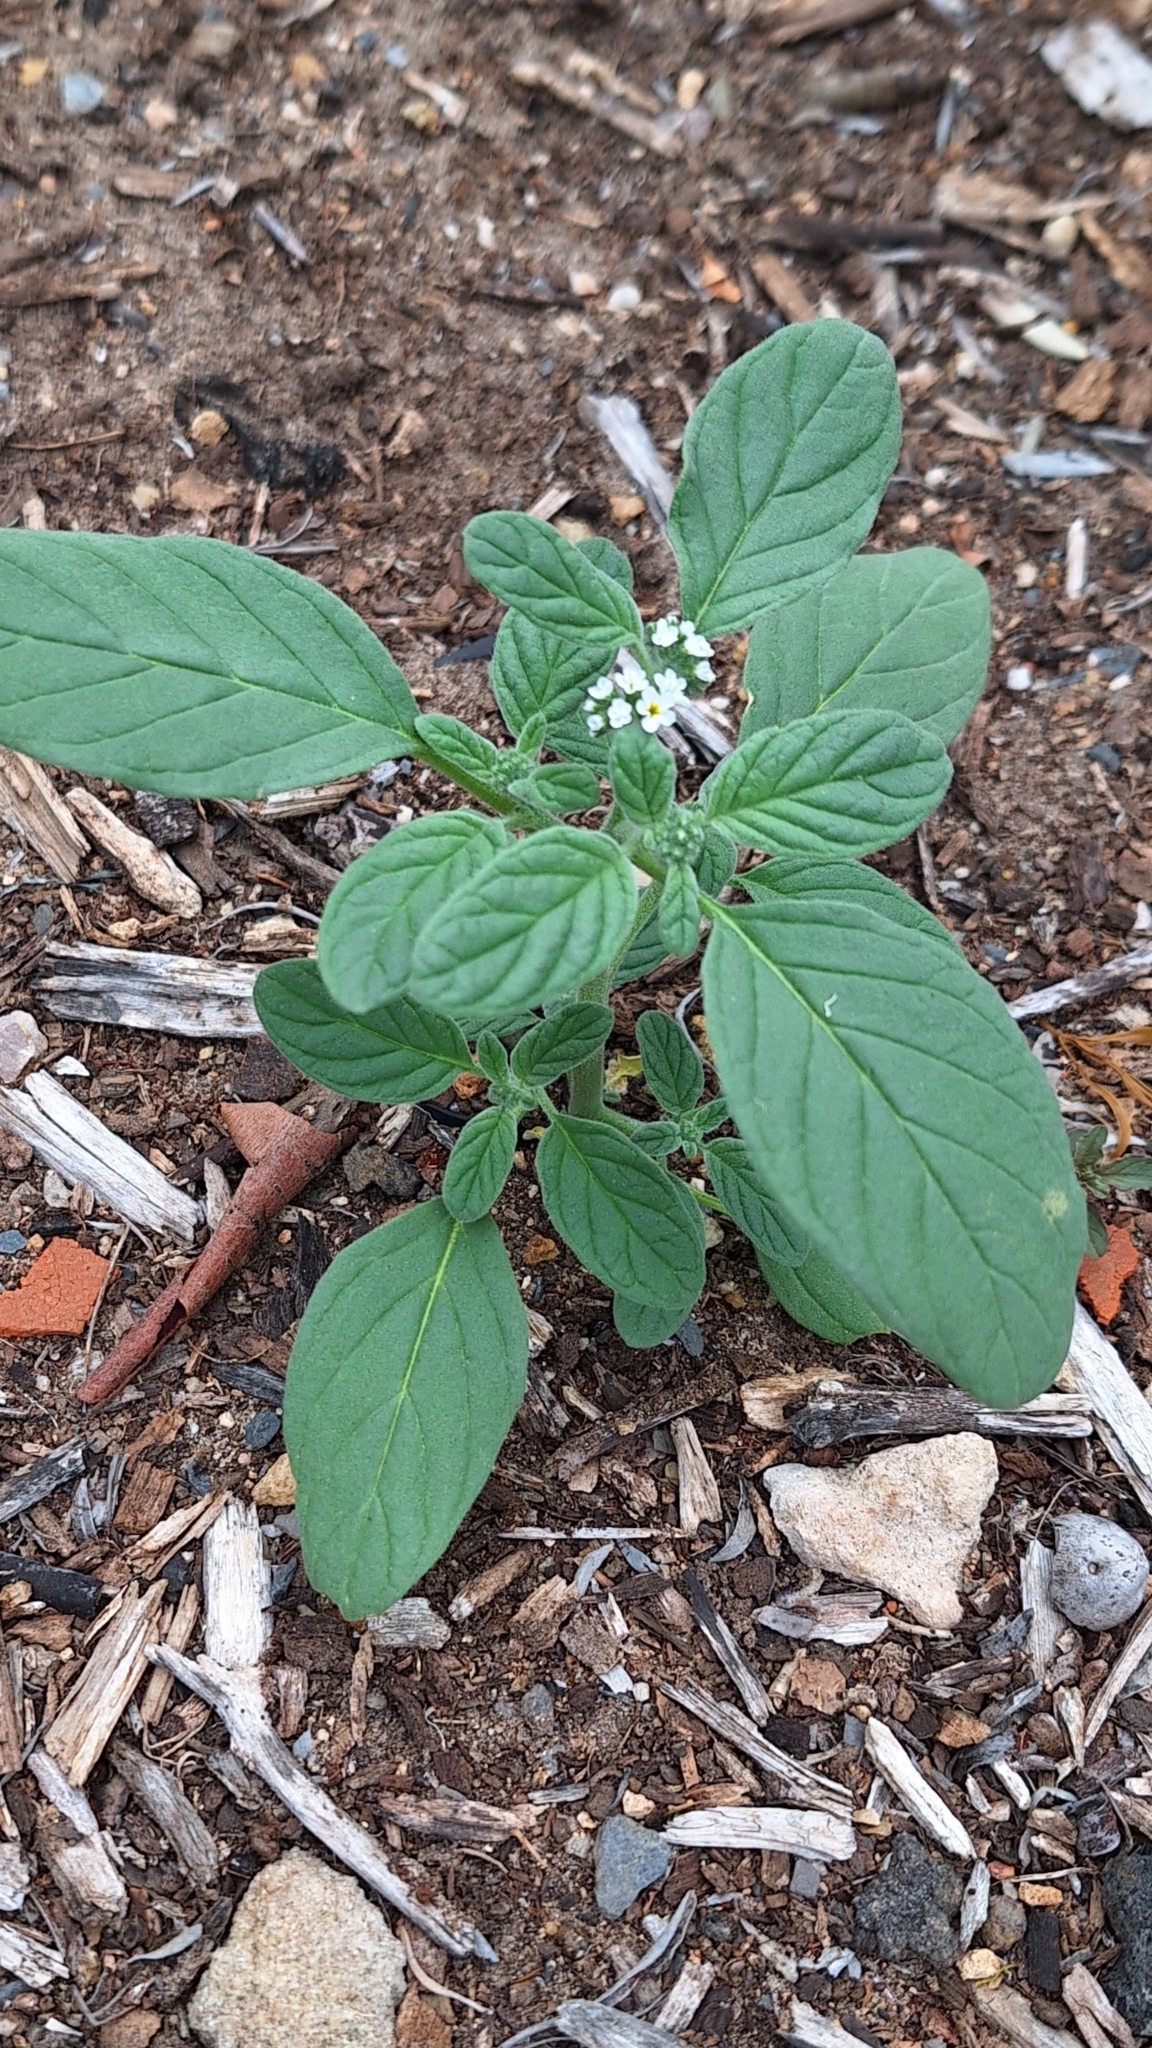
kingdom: Plantae
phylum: Tracheophyta
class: Magnoliopsida
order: Boraginales
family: Heliotropiaceae
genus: Heliotropium
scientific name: Heliotropium europaeum
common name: European heliotrope
